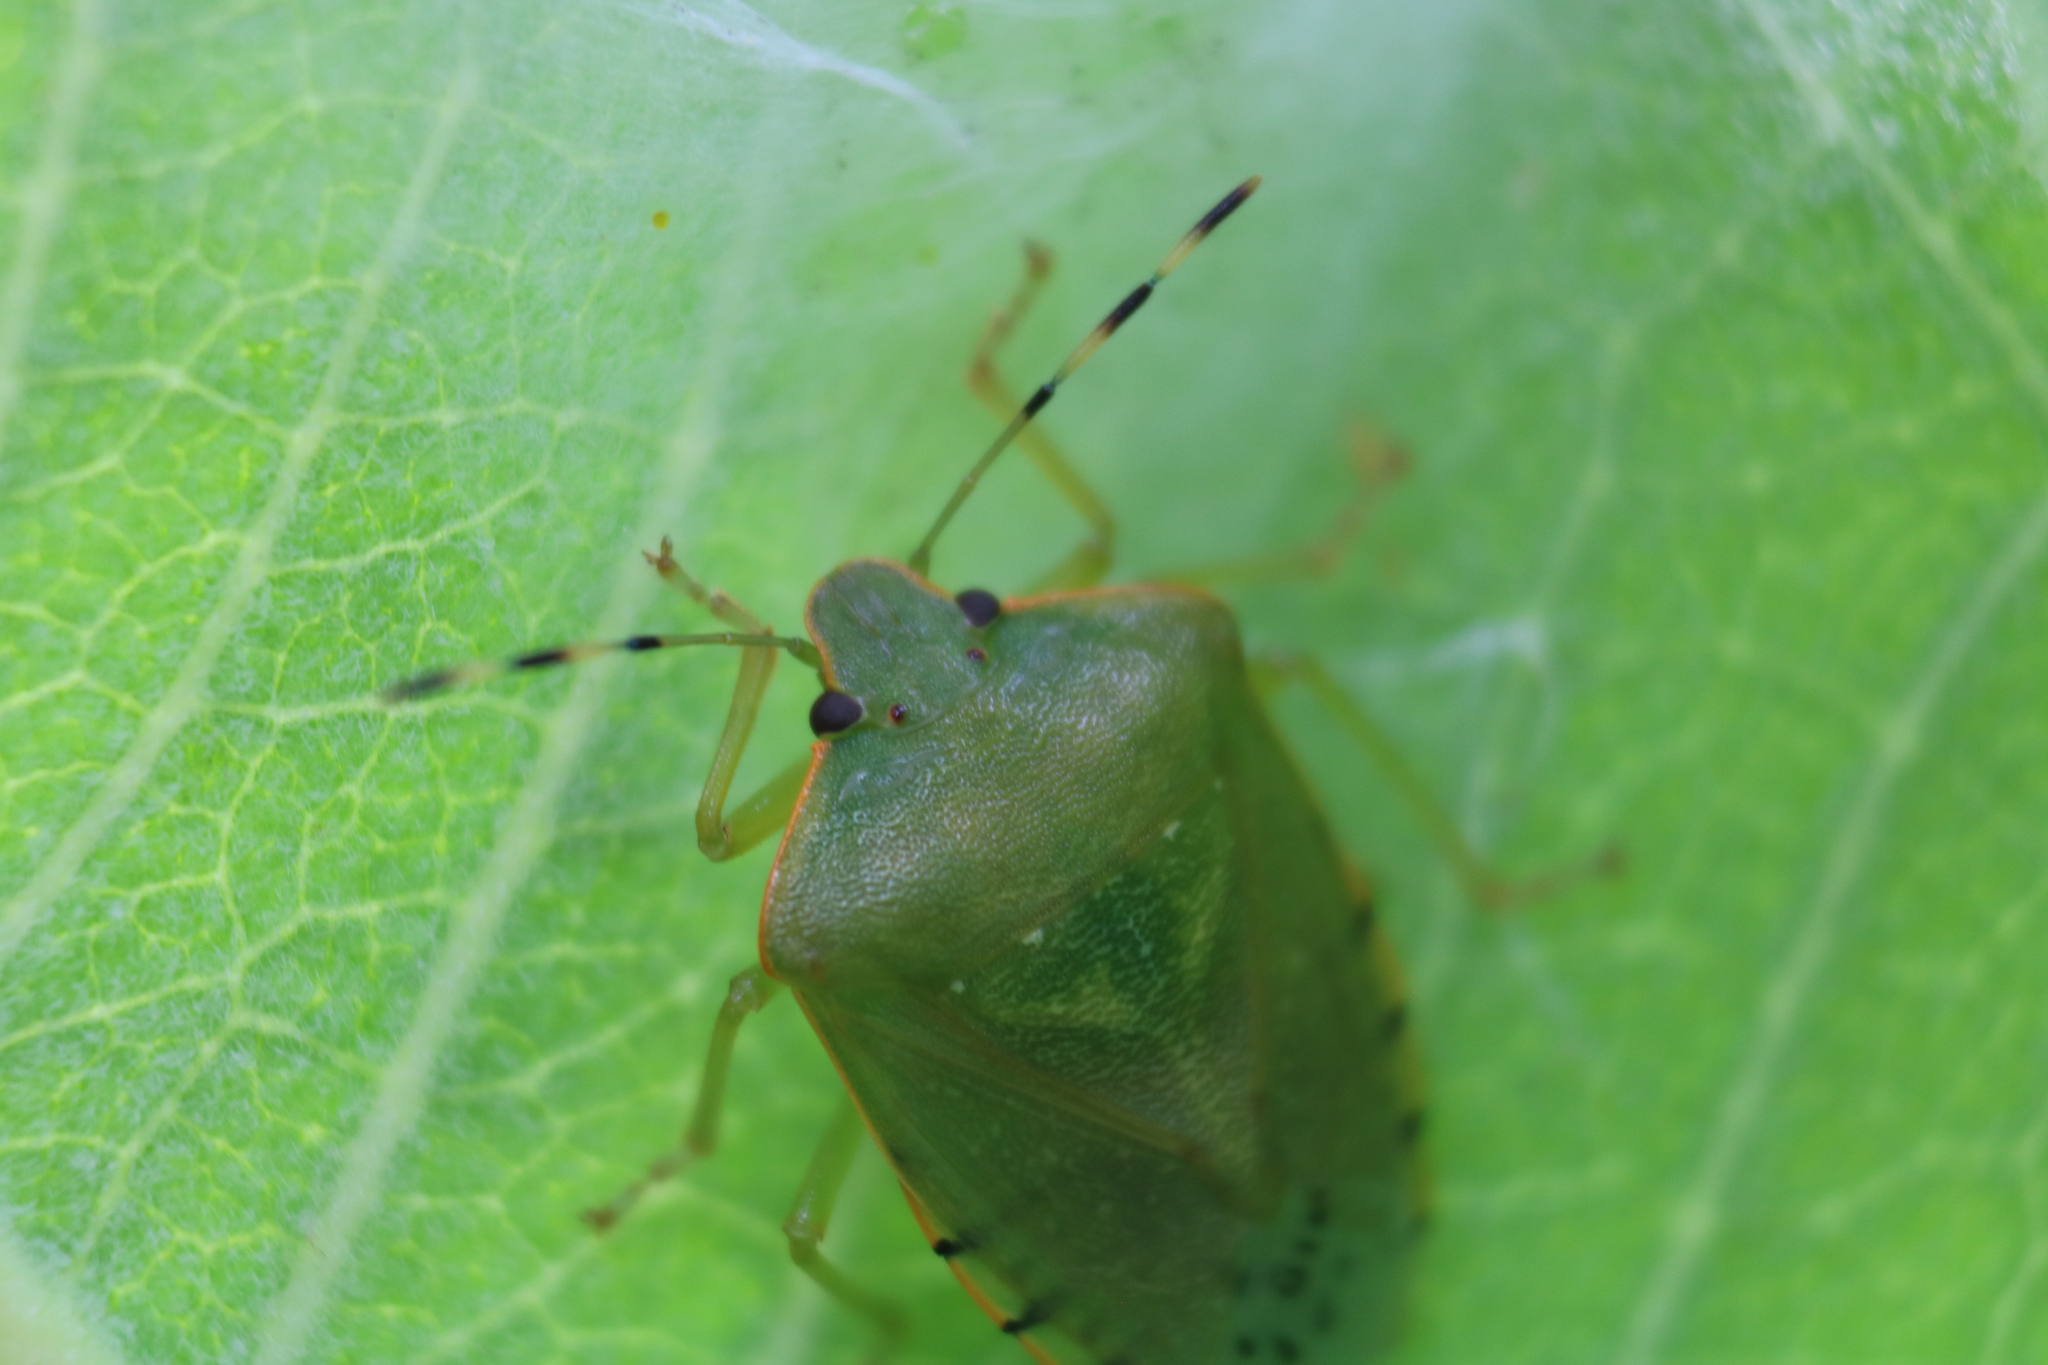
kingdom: Animalia
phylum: Arthropoda
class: Insecta
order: Hemiptera
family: Pentatomidae
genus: Chinavia
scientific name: Chinavia hilaris
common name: Green stink bug
